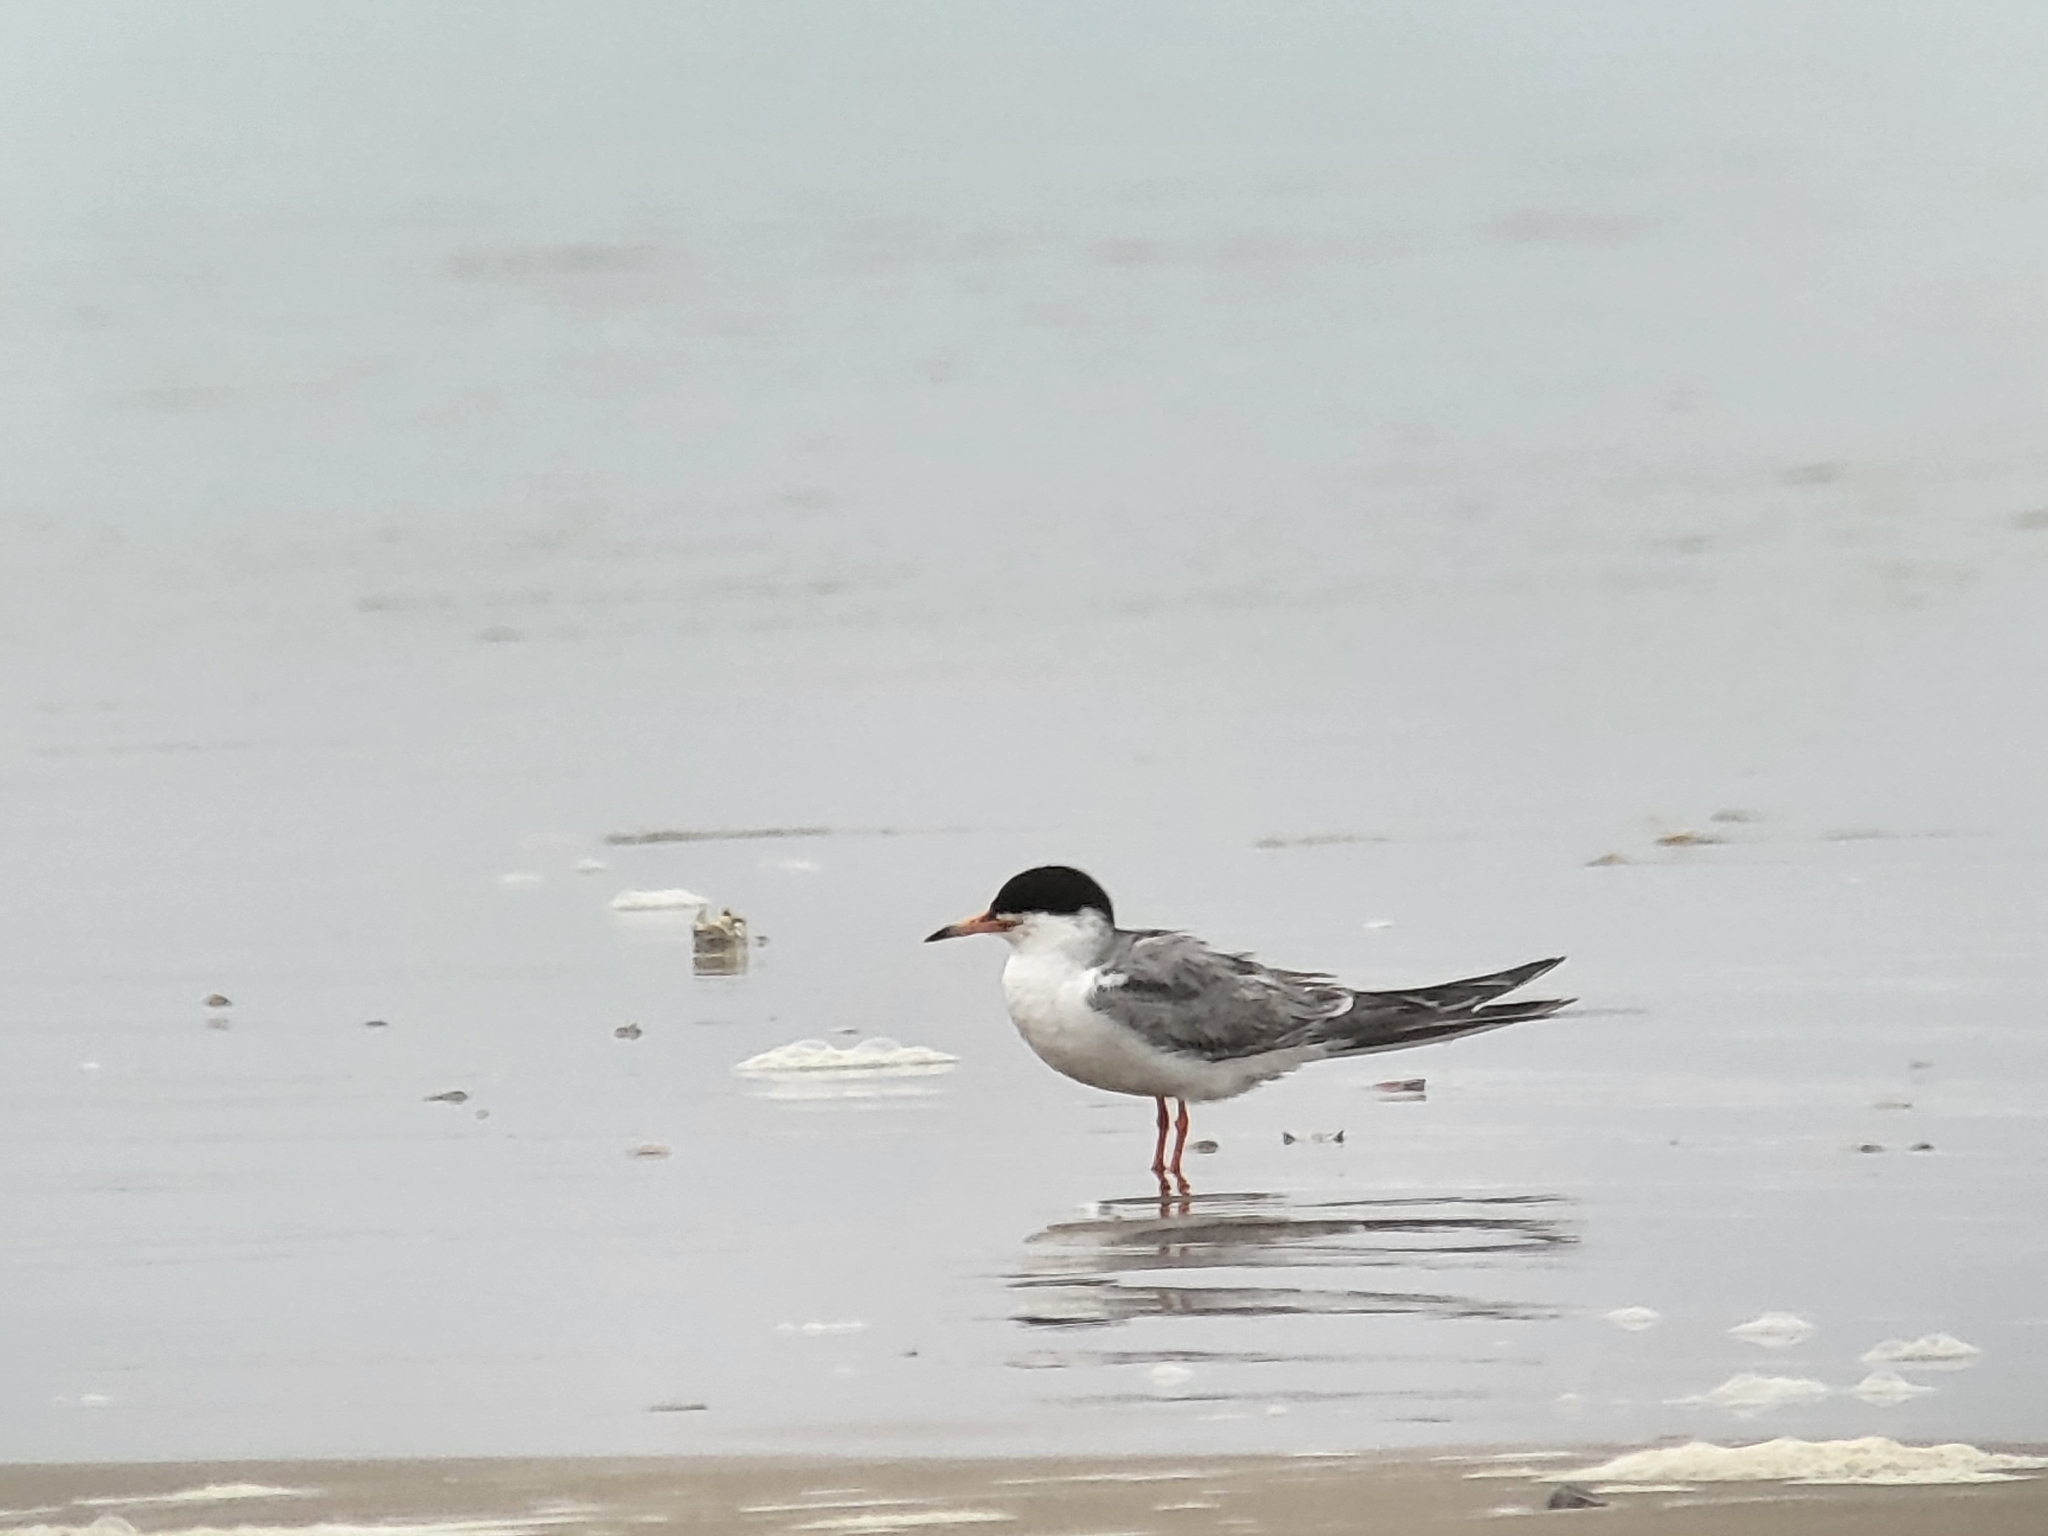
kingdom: Animalia
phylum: Chordata
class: Aves
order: Charadriiformes
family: Laridae
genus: Sterna
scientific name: Sterna forsteri
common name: Forster's tern
